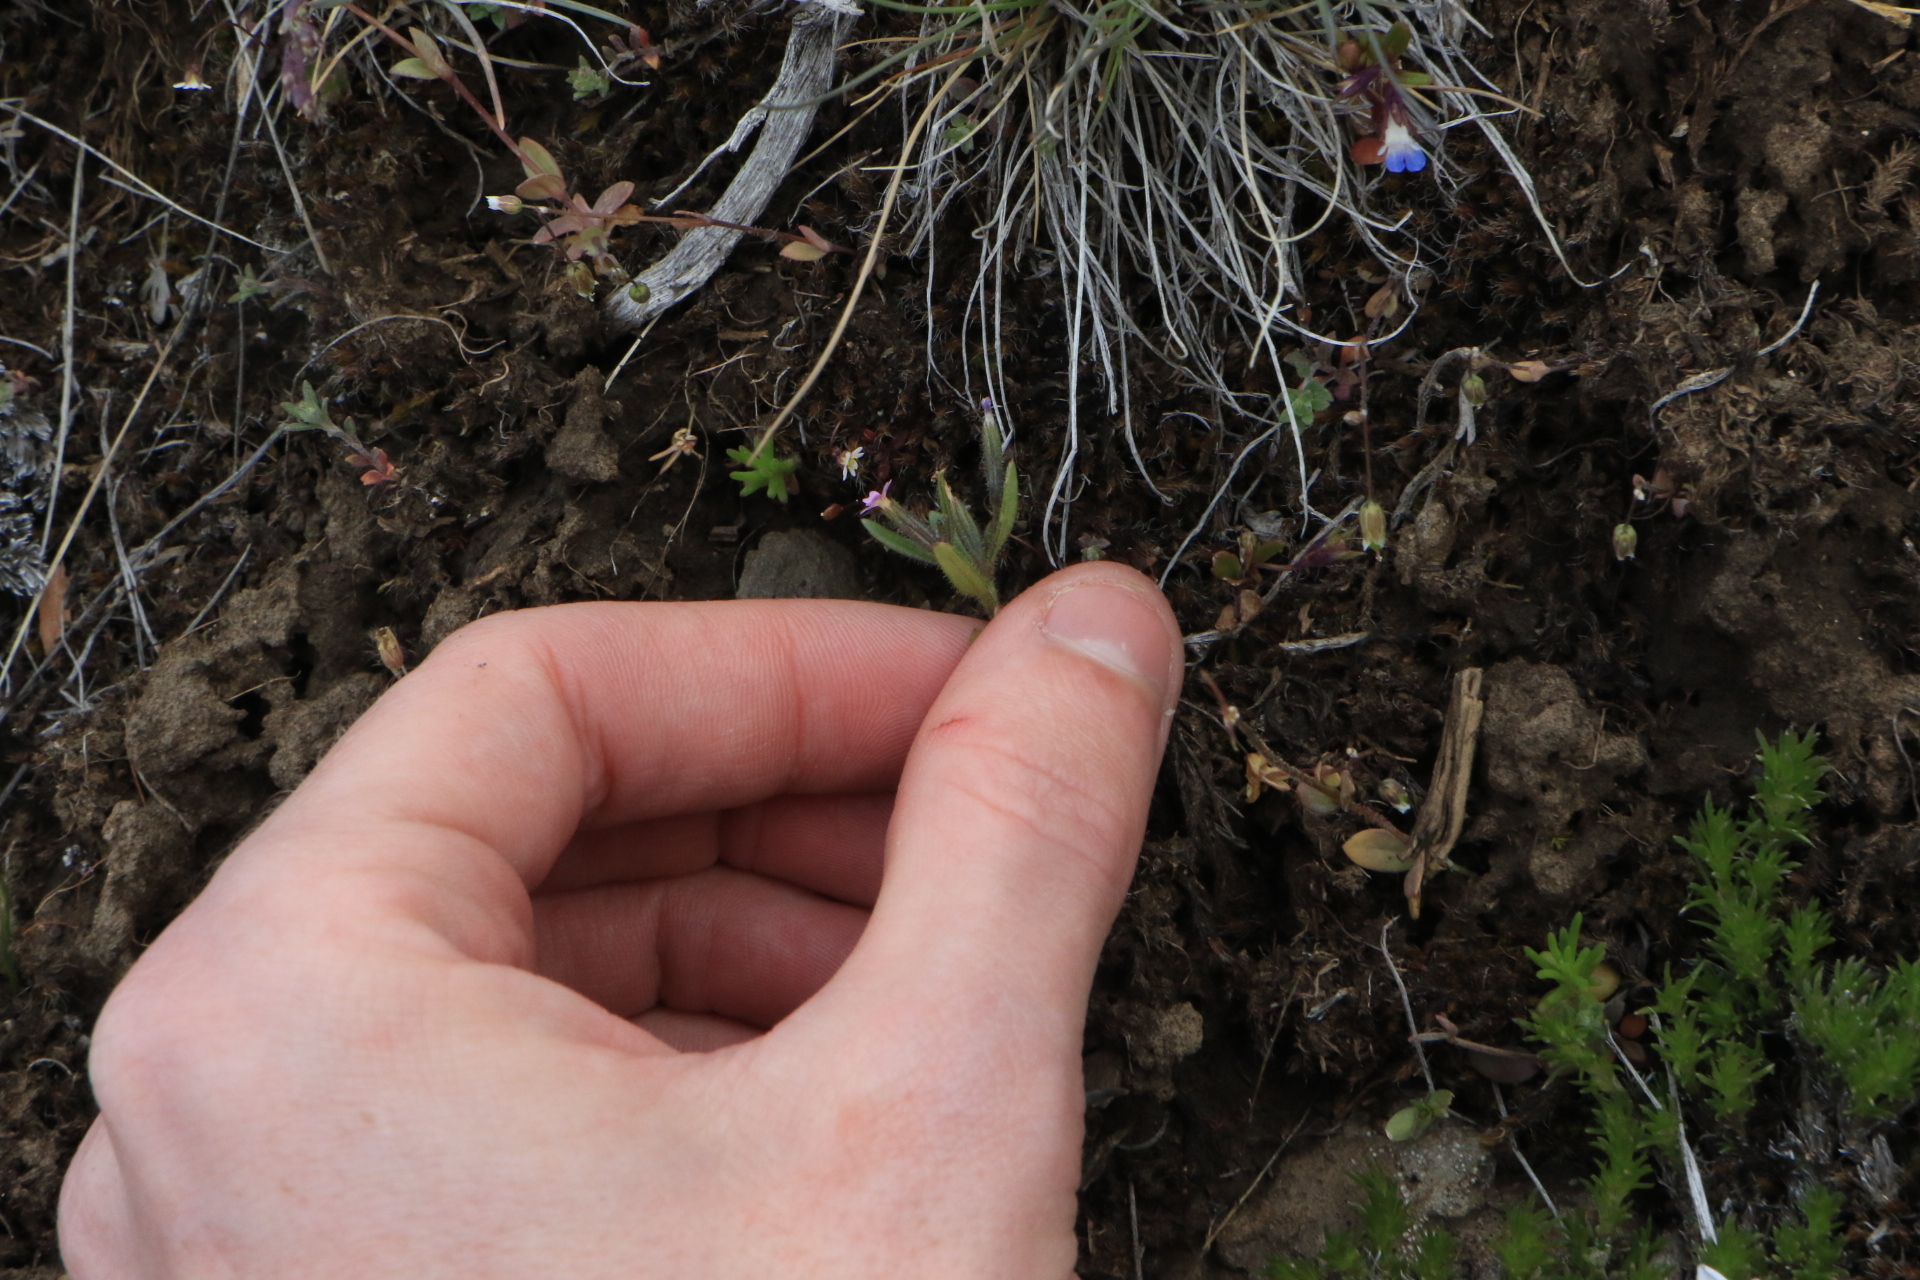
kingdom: Plantae
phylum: Tracheophyta
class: Magnoliopsida
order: Ericales
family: Polemoniaceae
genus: Phlox
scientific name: Phlox gracilis
